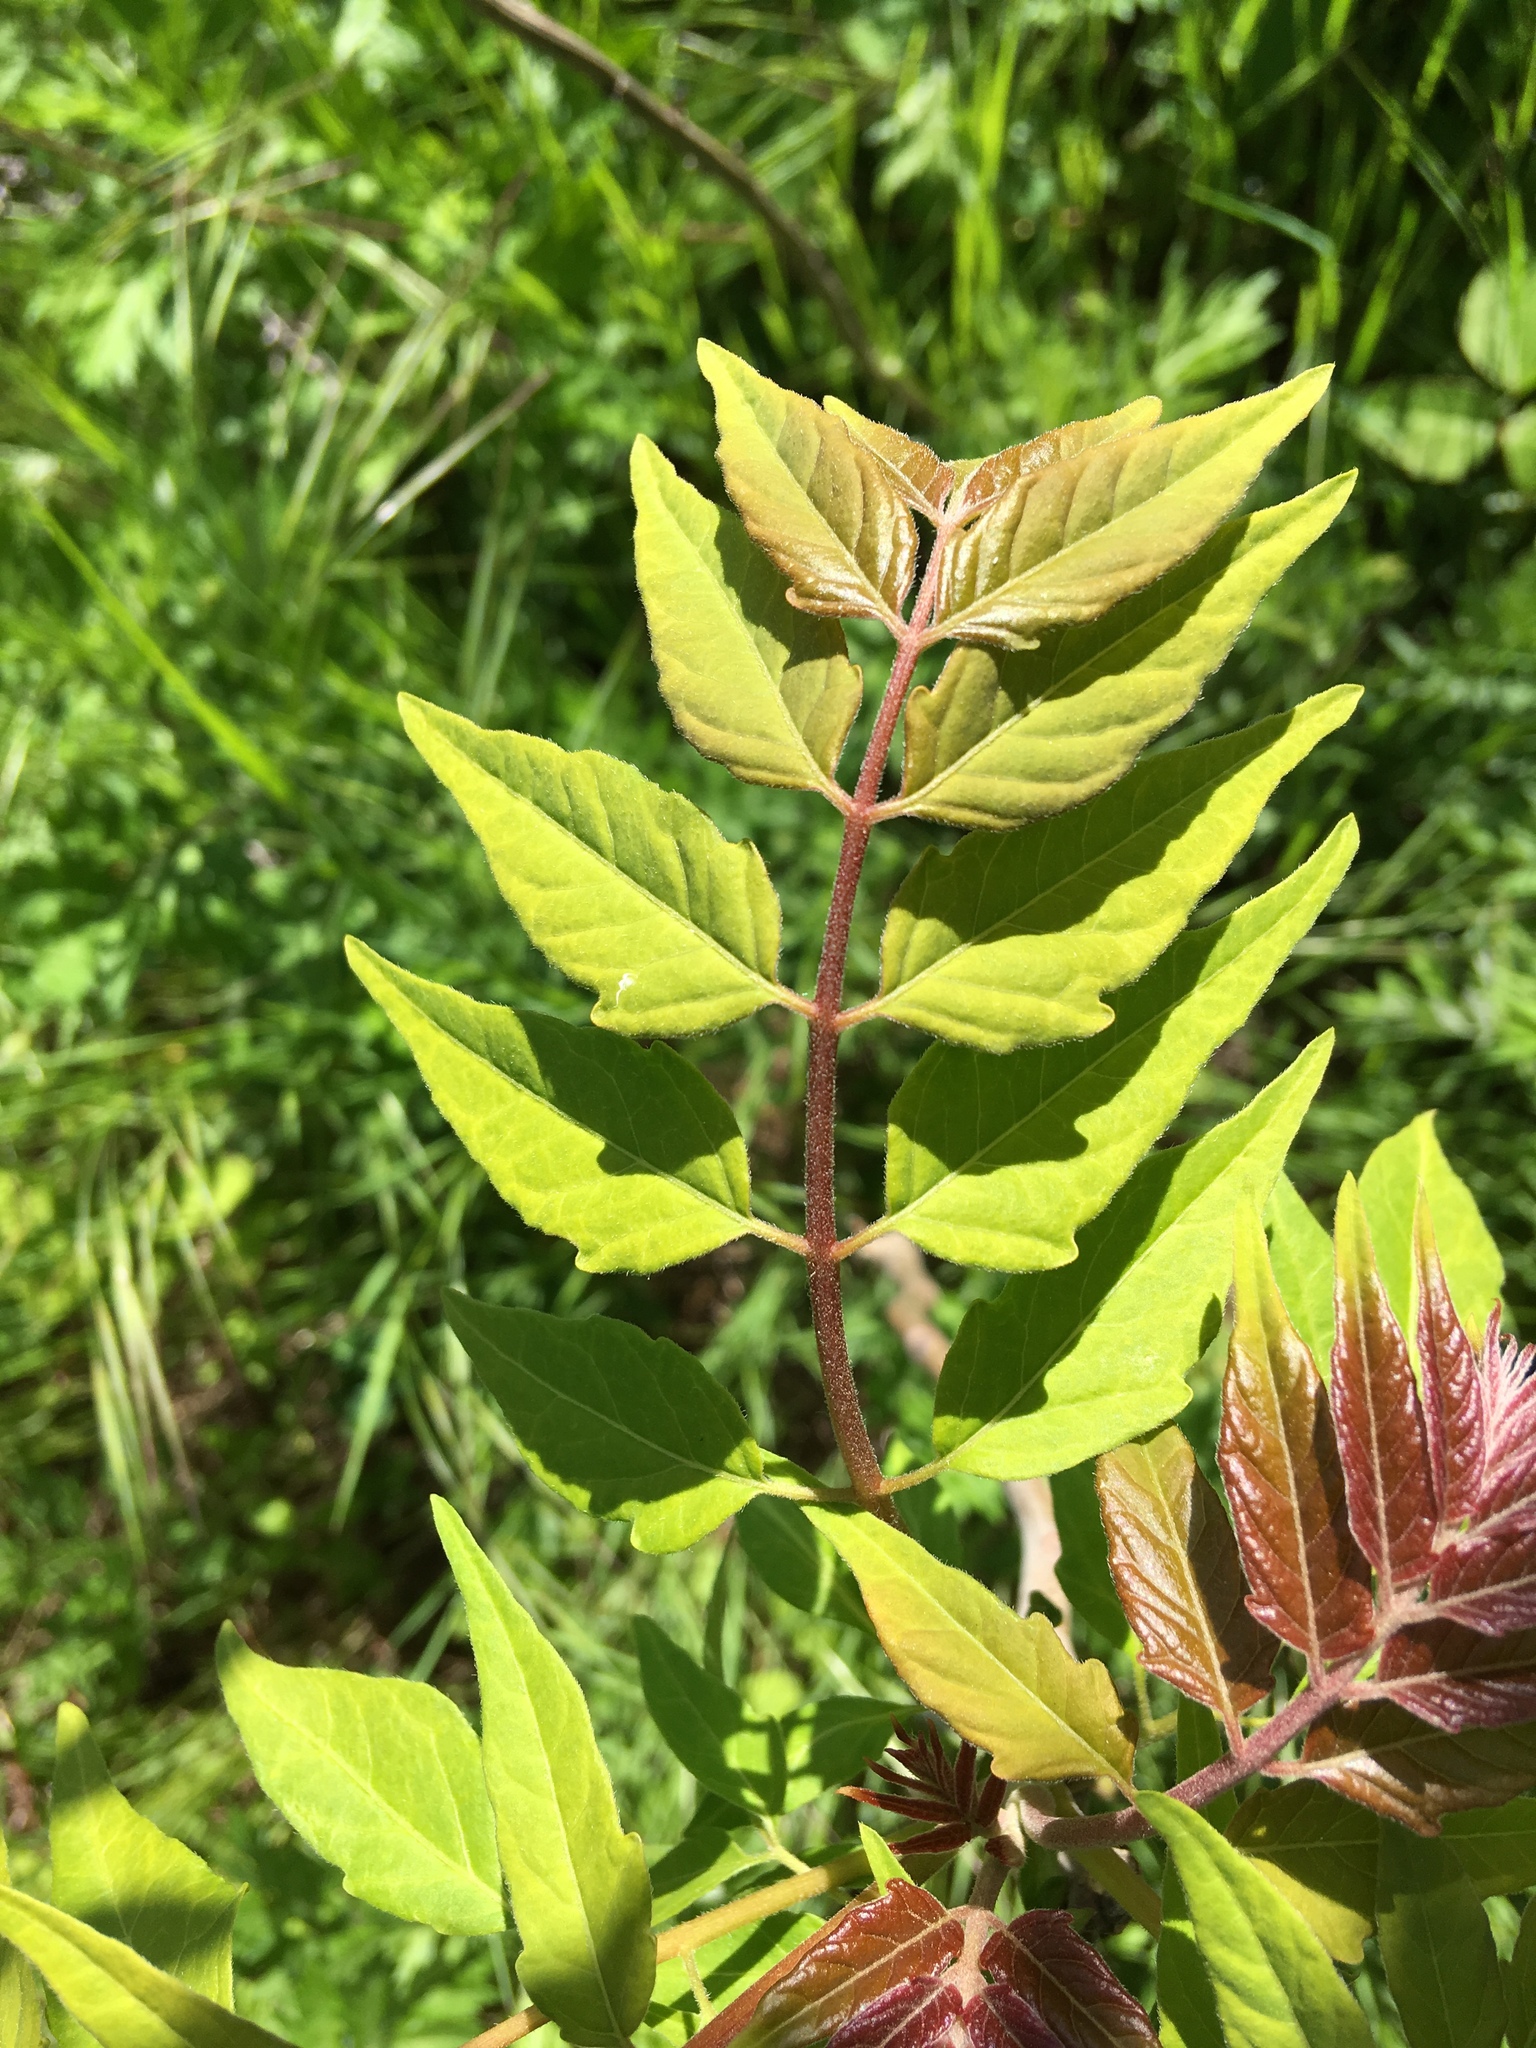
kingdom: Plantae
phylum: Tracheophyta
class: Magnoliopsida
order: Sapindales
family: Simaroubaceae
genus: Ailanthus
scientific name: Ailanthus altissima
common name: Tree-of-heaven
